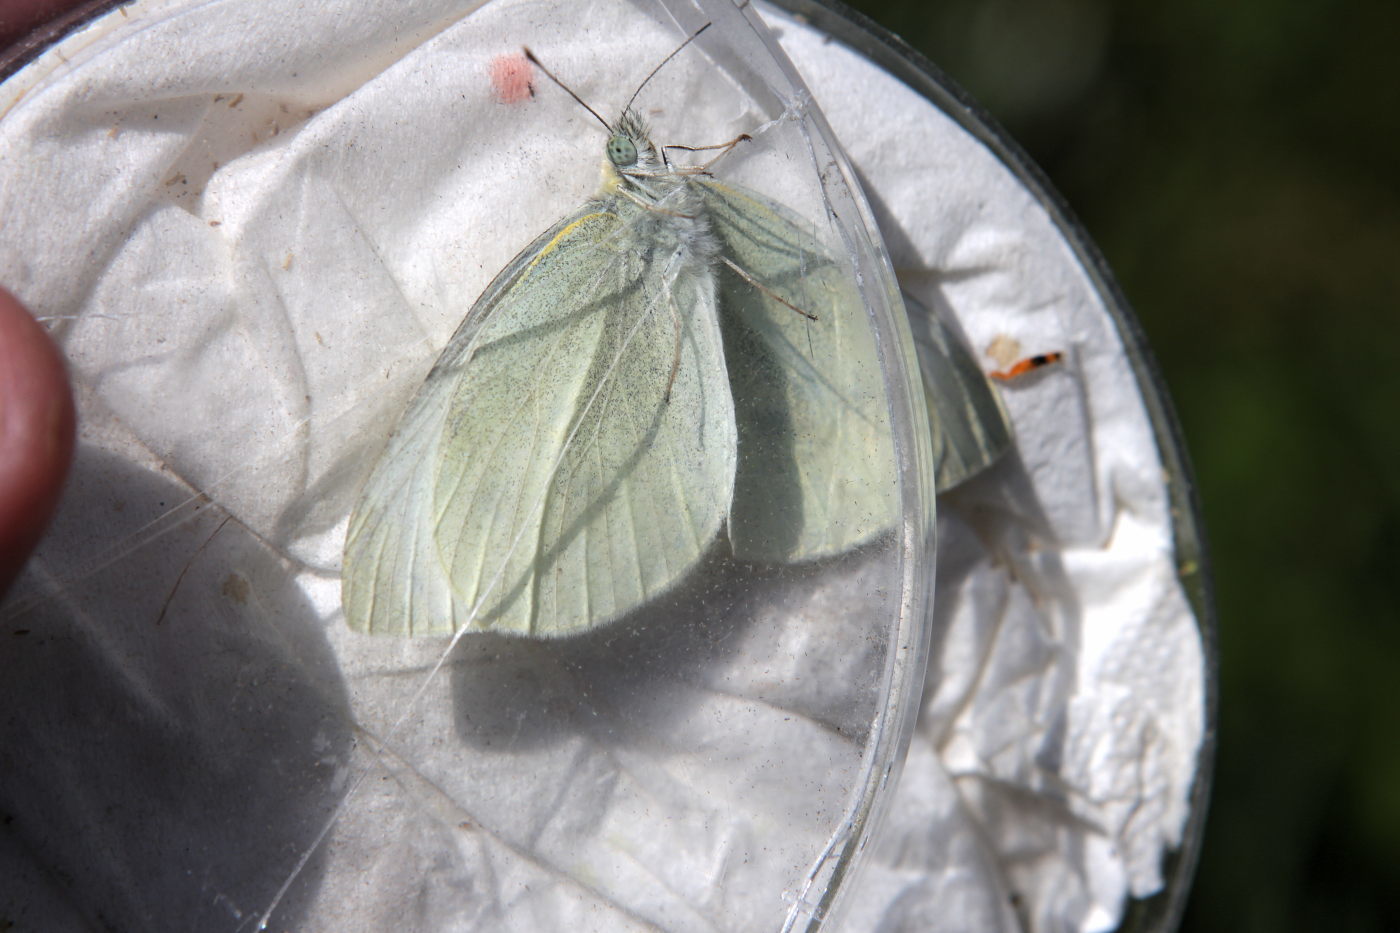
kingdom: Animalia
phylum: Arthropoda
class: Insecta
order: Lepidoptera
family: Pieridae
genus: Pieris
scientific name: Pieris rapae
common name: Small white
